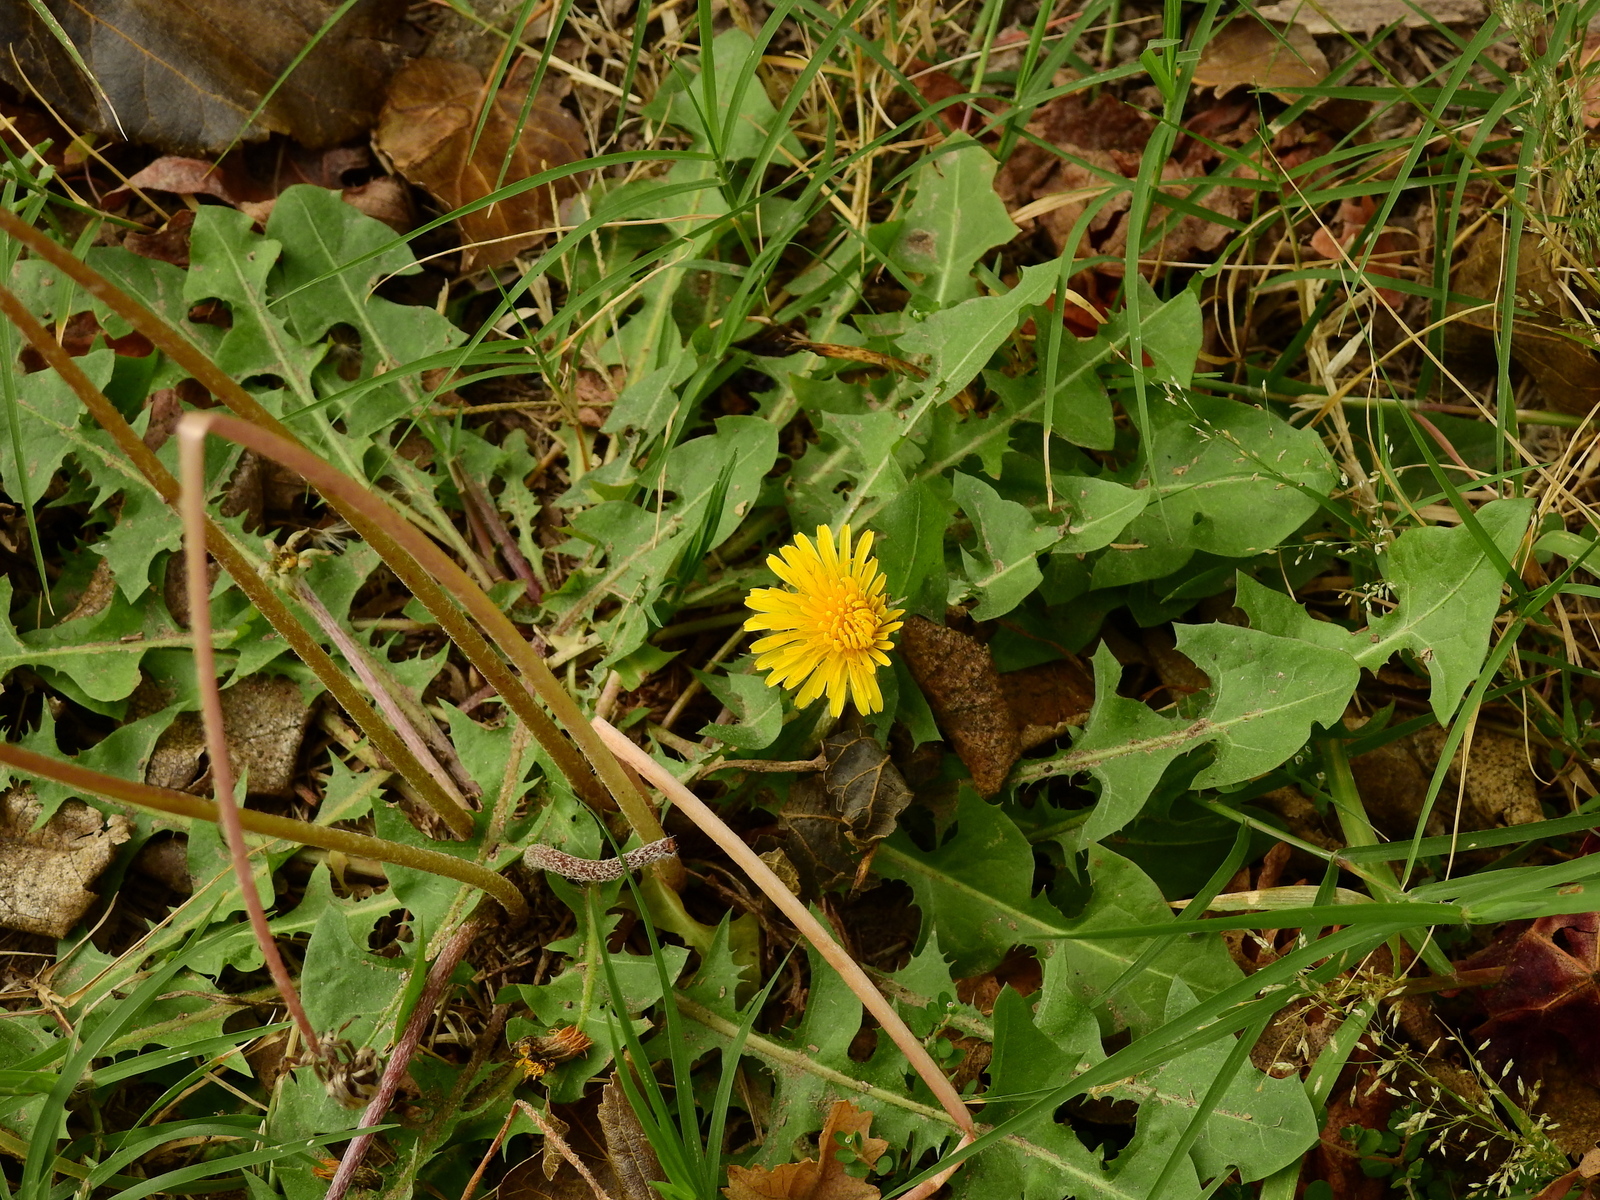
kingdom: Plantae
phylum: Tracheophyta
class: Magnoliopsida
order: Asterales
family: Asteraceae
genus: Taraxacum
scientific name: Taraxacum officinale
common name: Common dandelion
